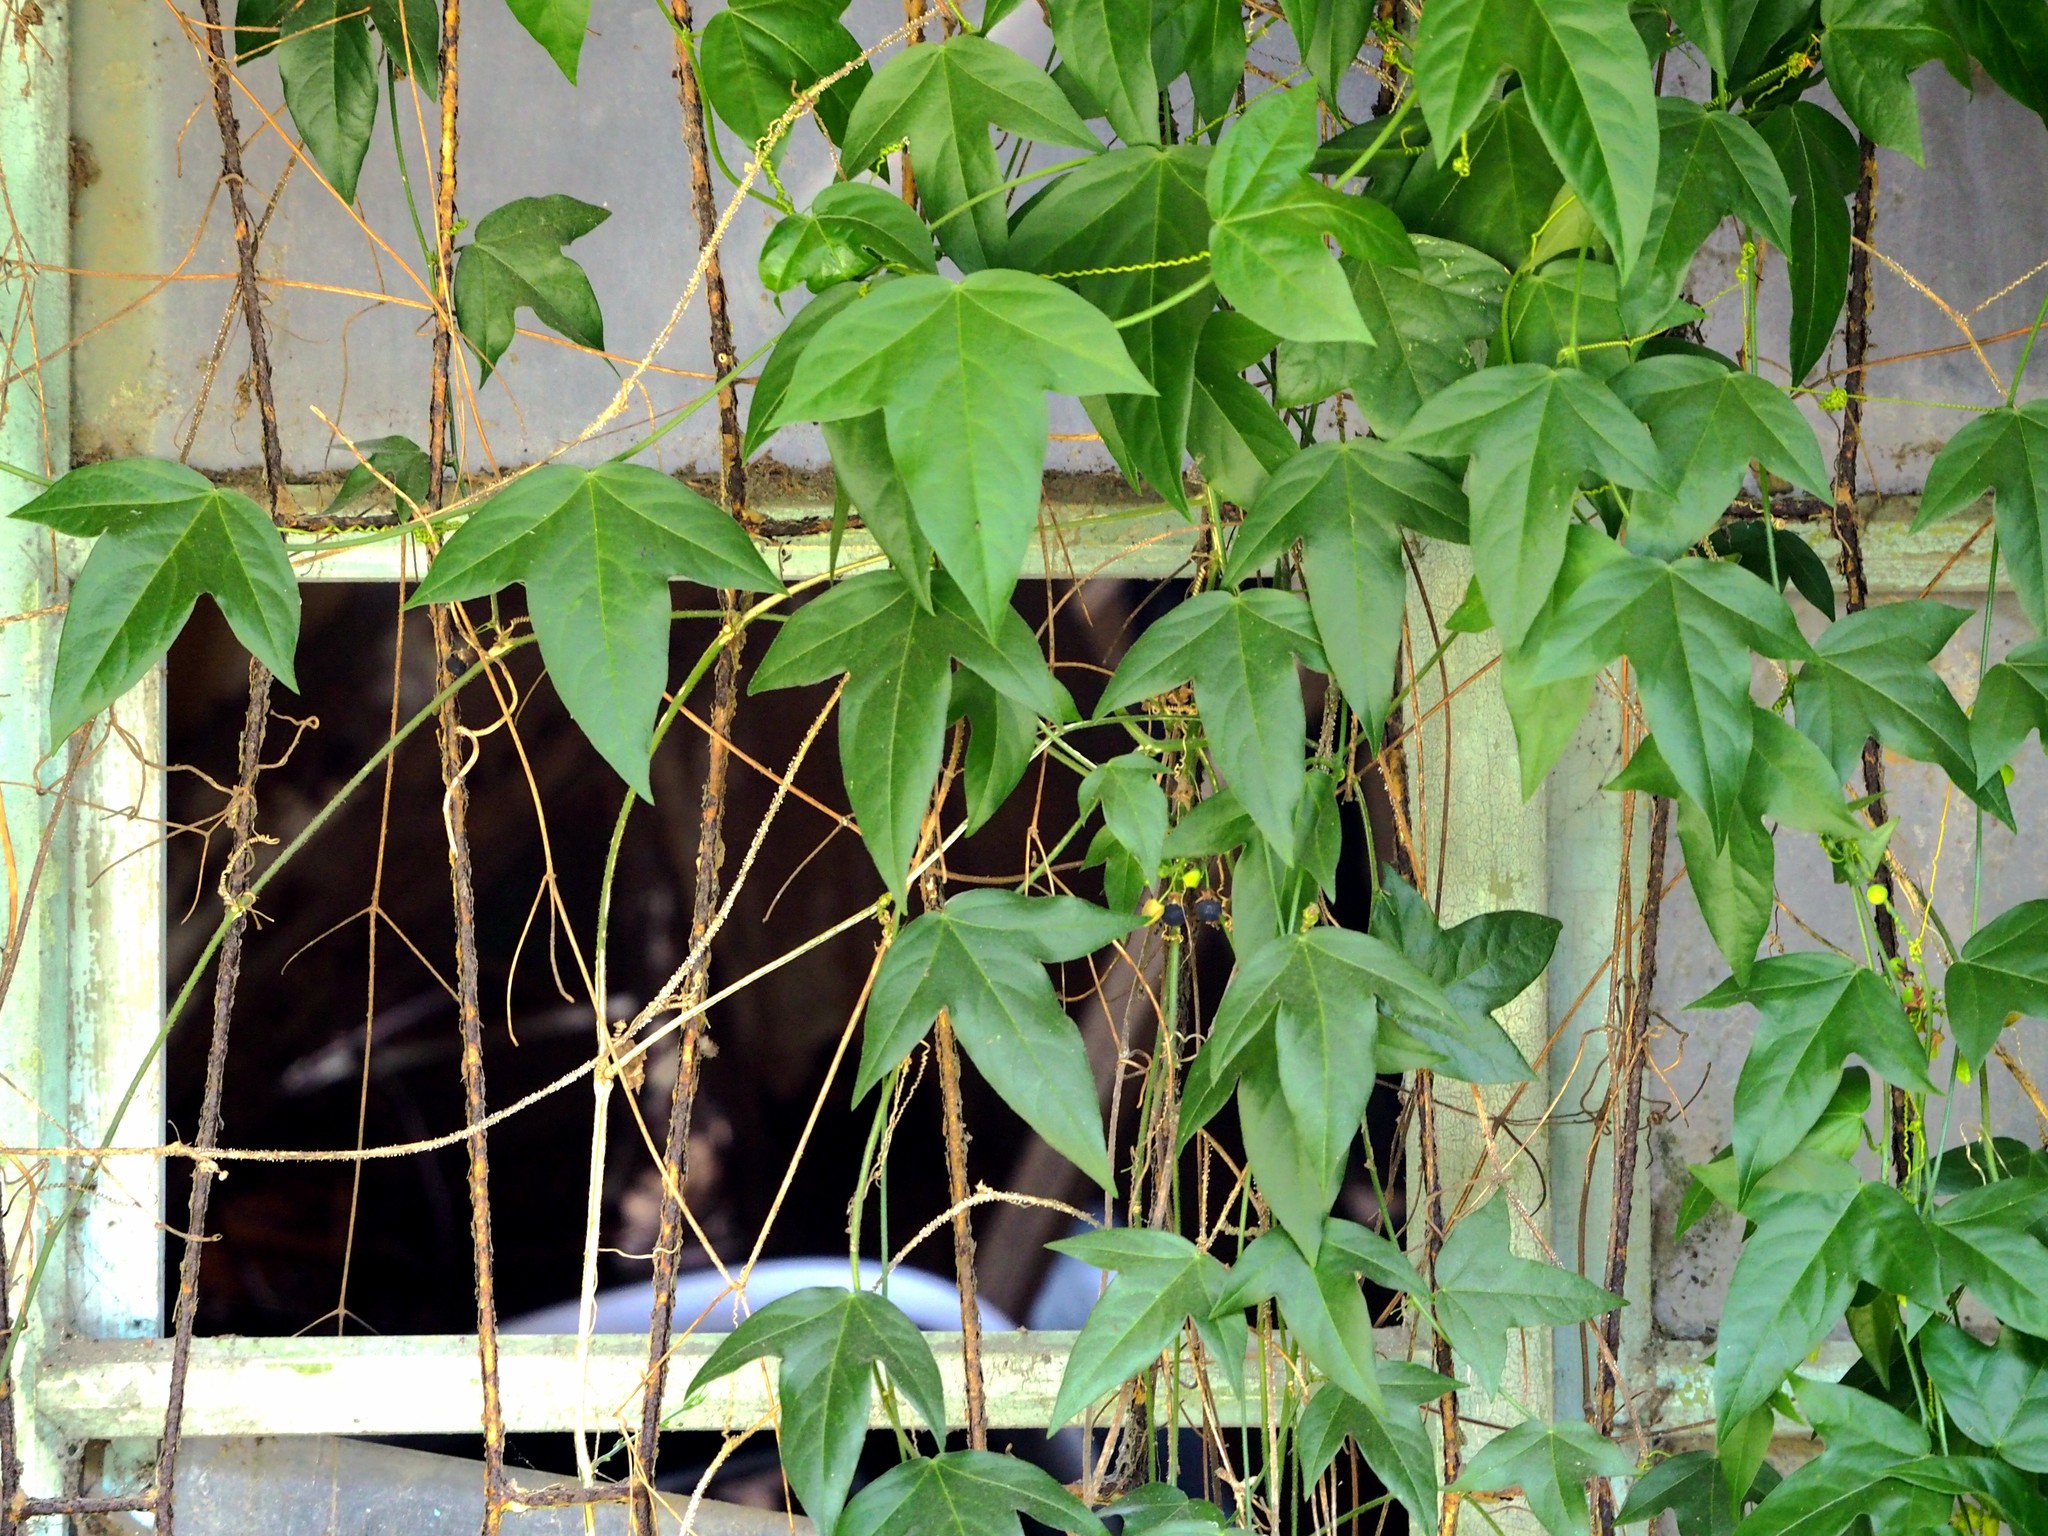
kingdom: Plantae
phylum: Tracheophyta
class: Magnoliopsida
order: Malpighiales
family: Passifloraceae
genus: Passiflora
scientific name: Passiflora suberosa
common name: Wild passionfruit
